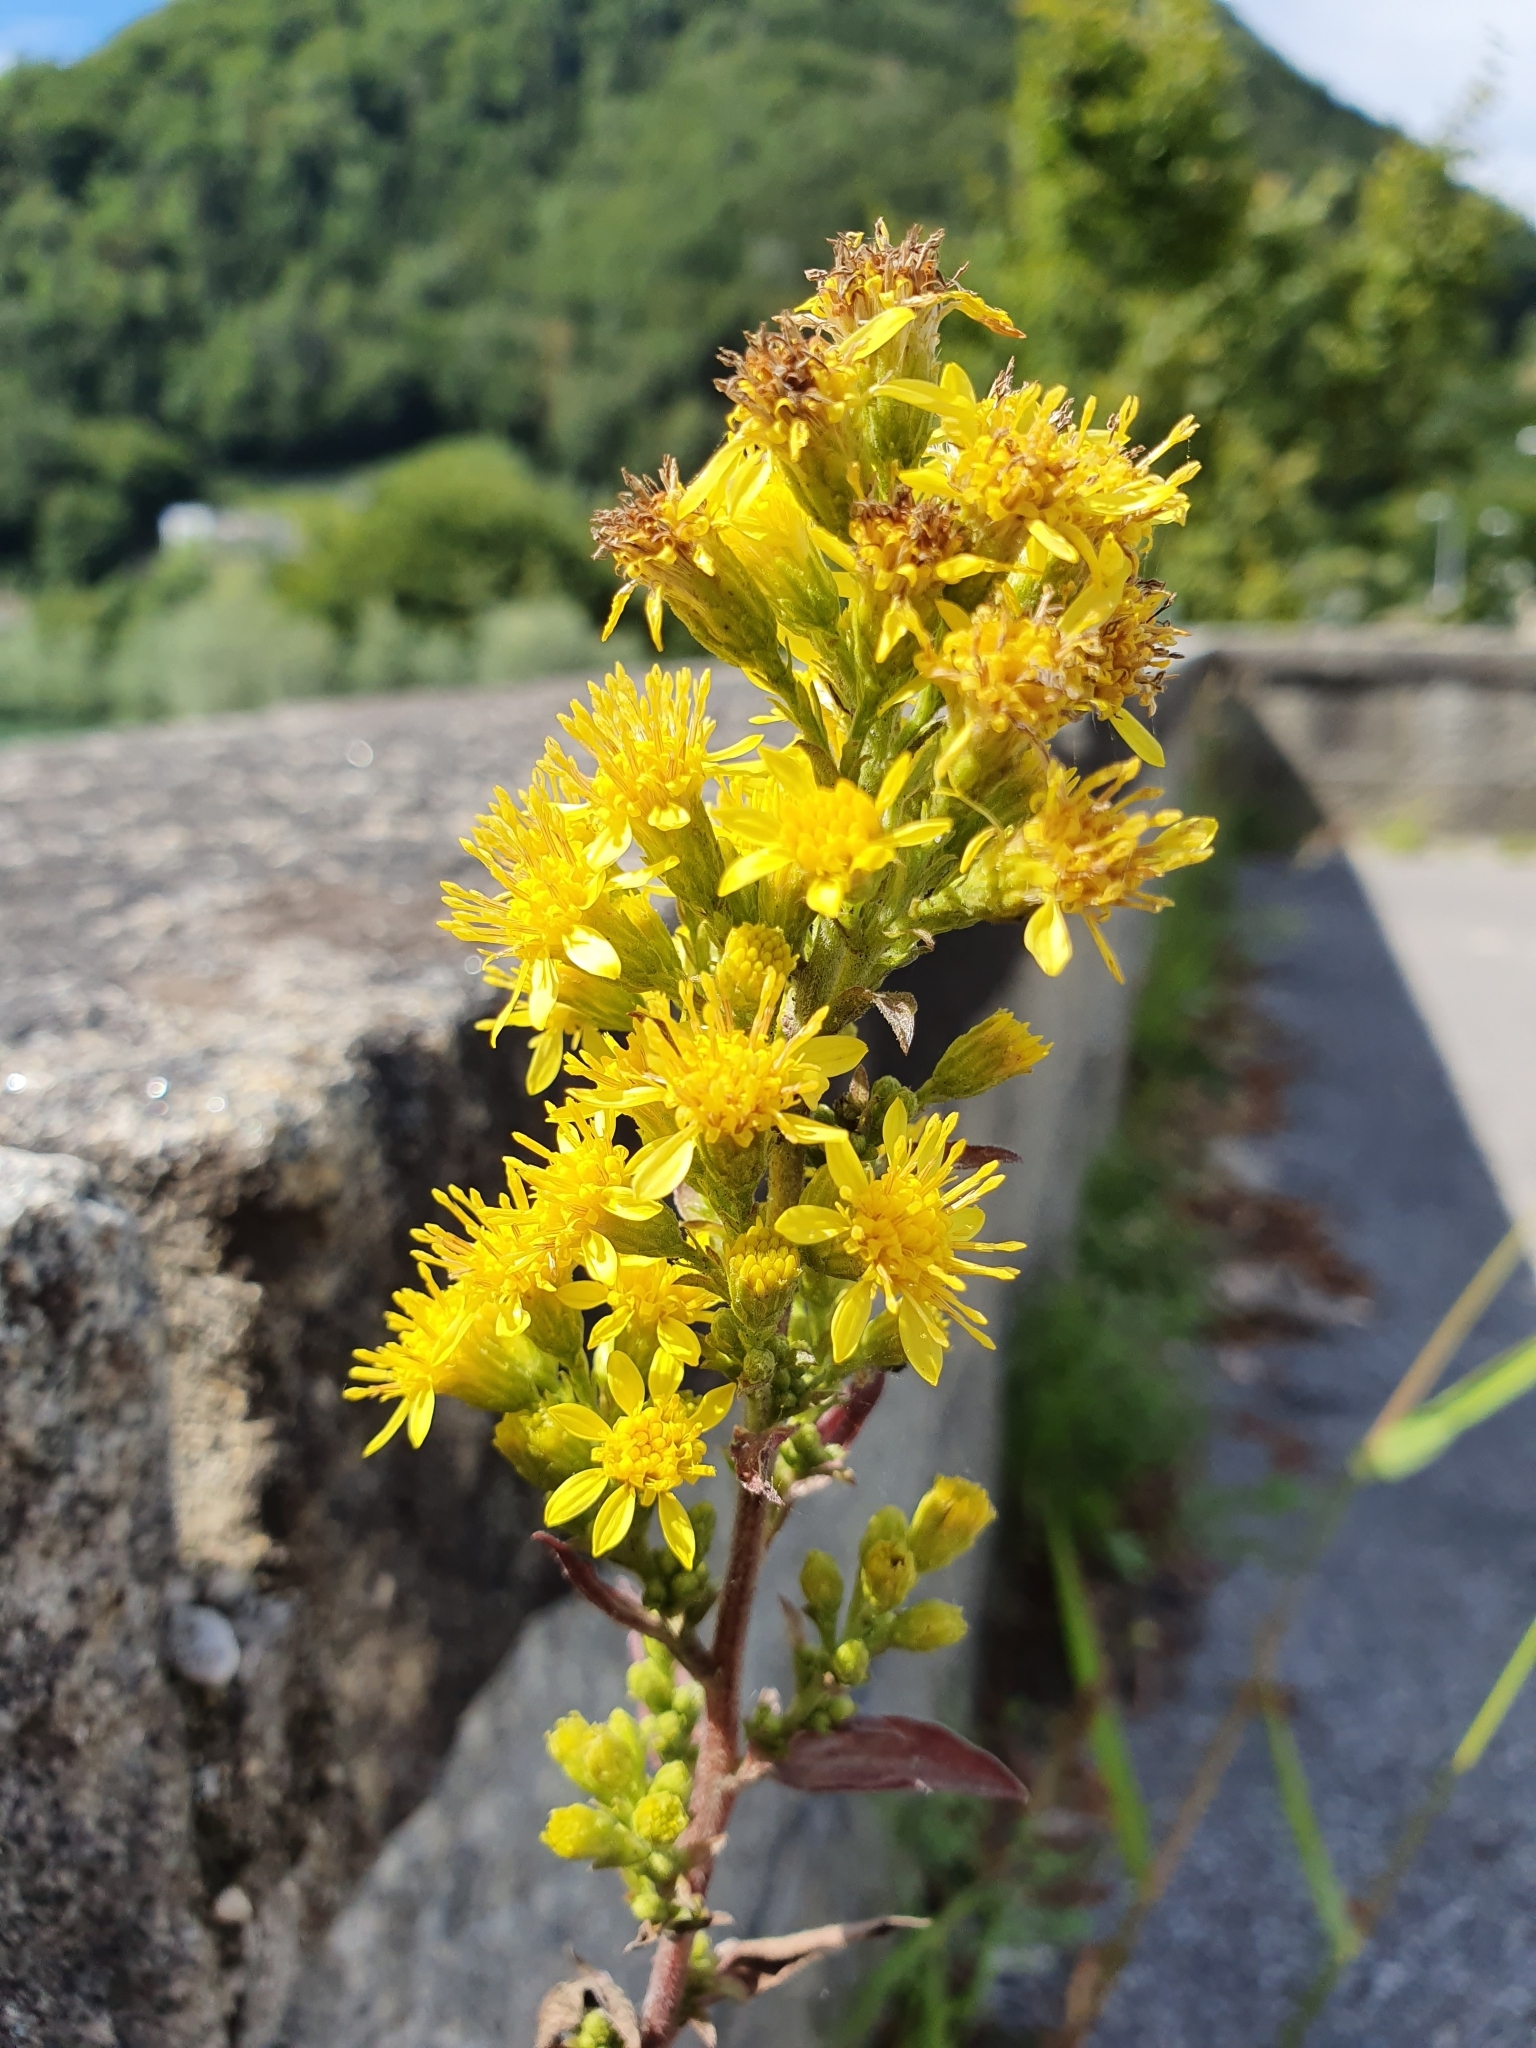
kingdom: Plantae
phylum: Tracheophyta
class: Magnoliopsida
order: Asterales
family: Asteraceae
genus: Solidago
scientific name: Solidago virgaurea
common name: Goldenrod
